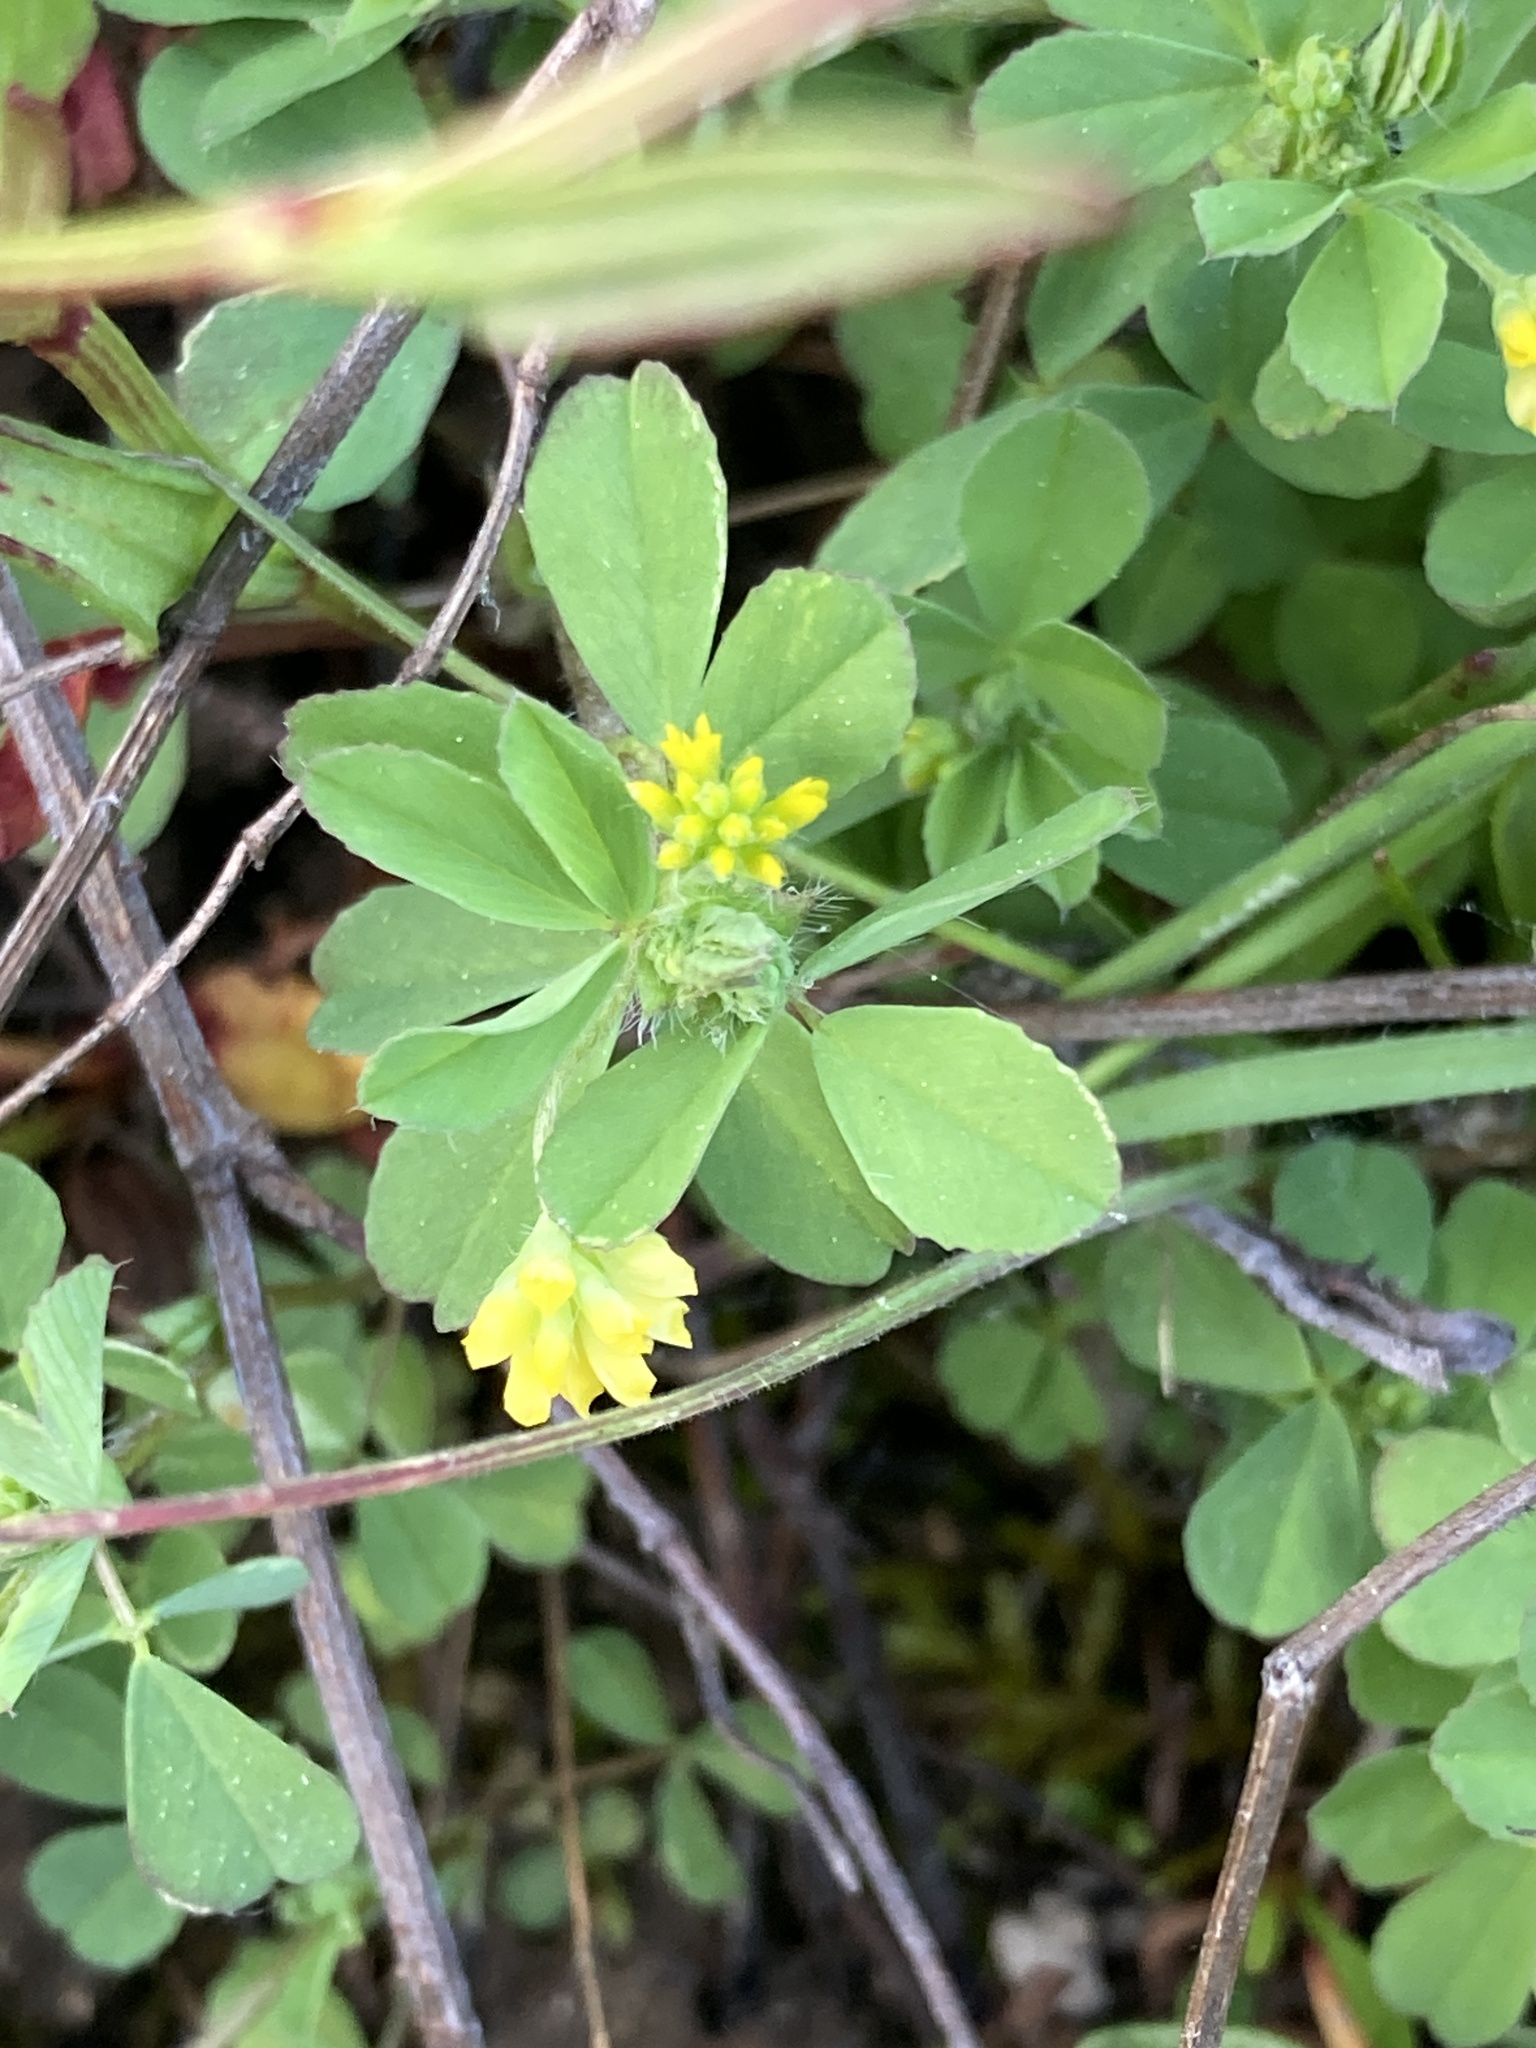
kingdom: Plantae
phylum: Tracheophyta
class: Magnoliopsida
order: Fabales
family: Fabaceae
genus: Trifolium
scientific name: Trifolium dubium
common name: Suckling clover
